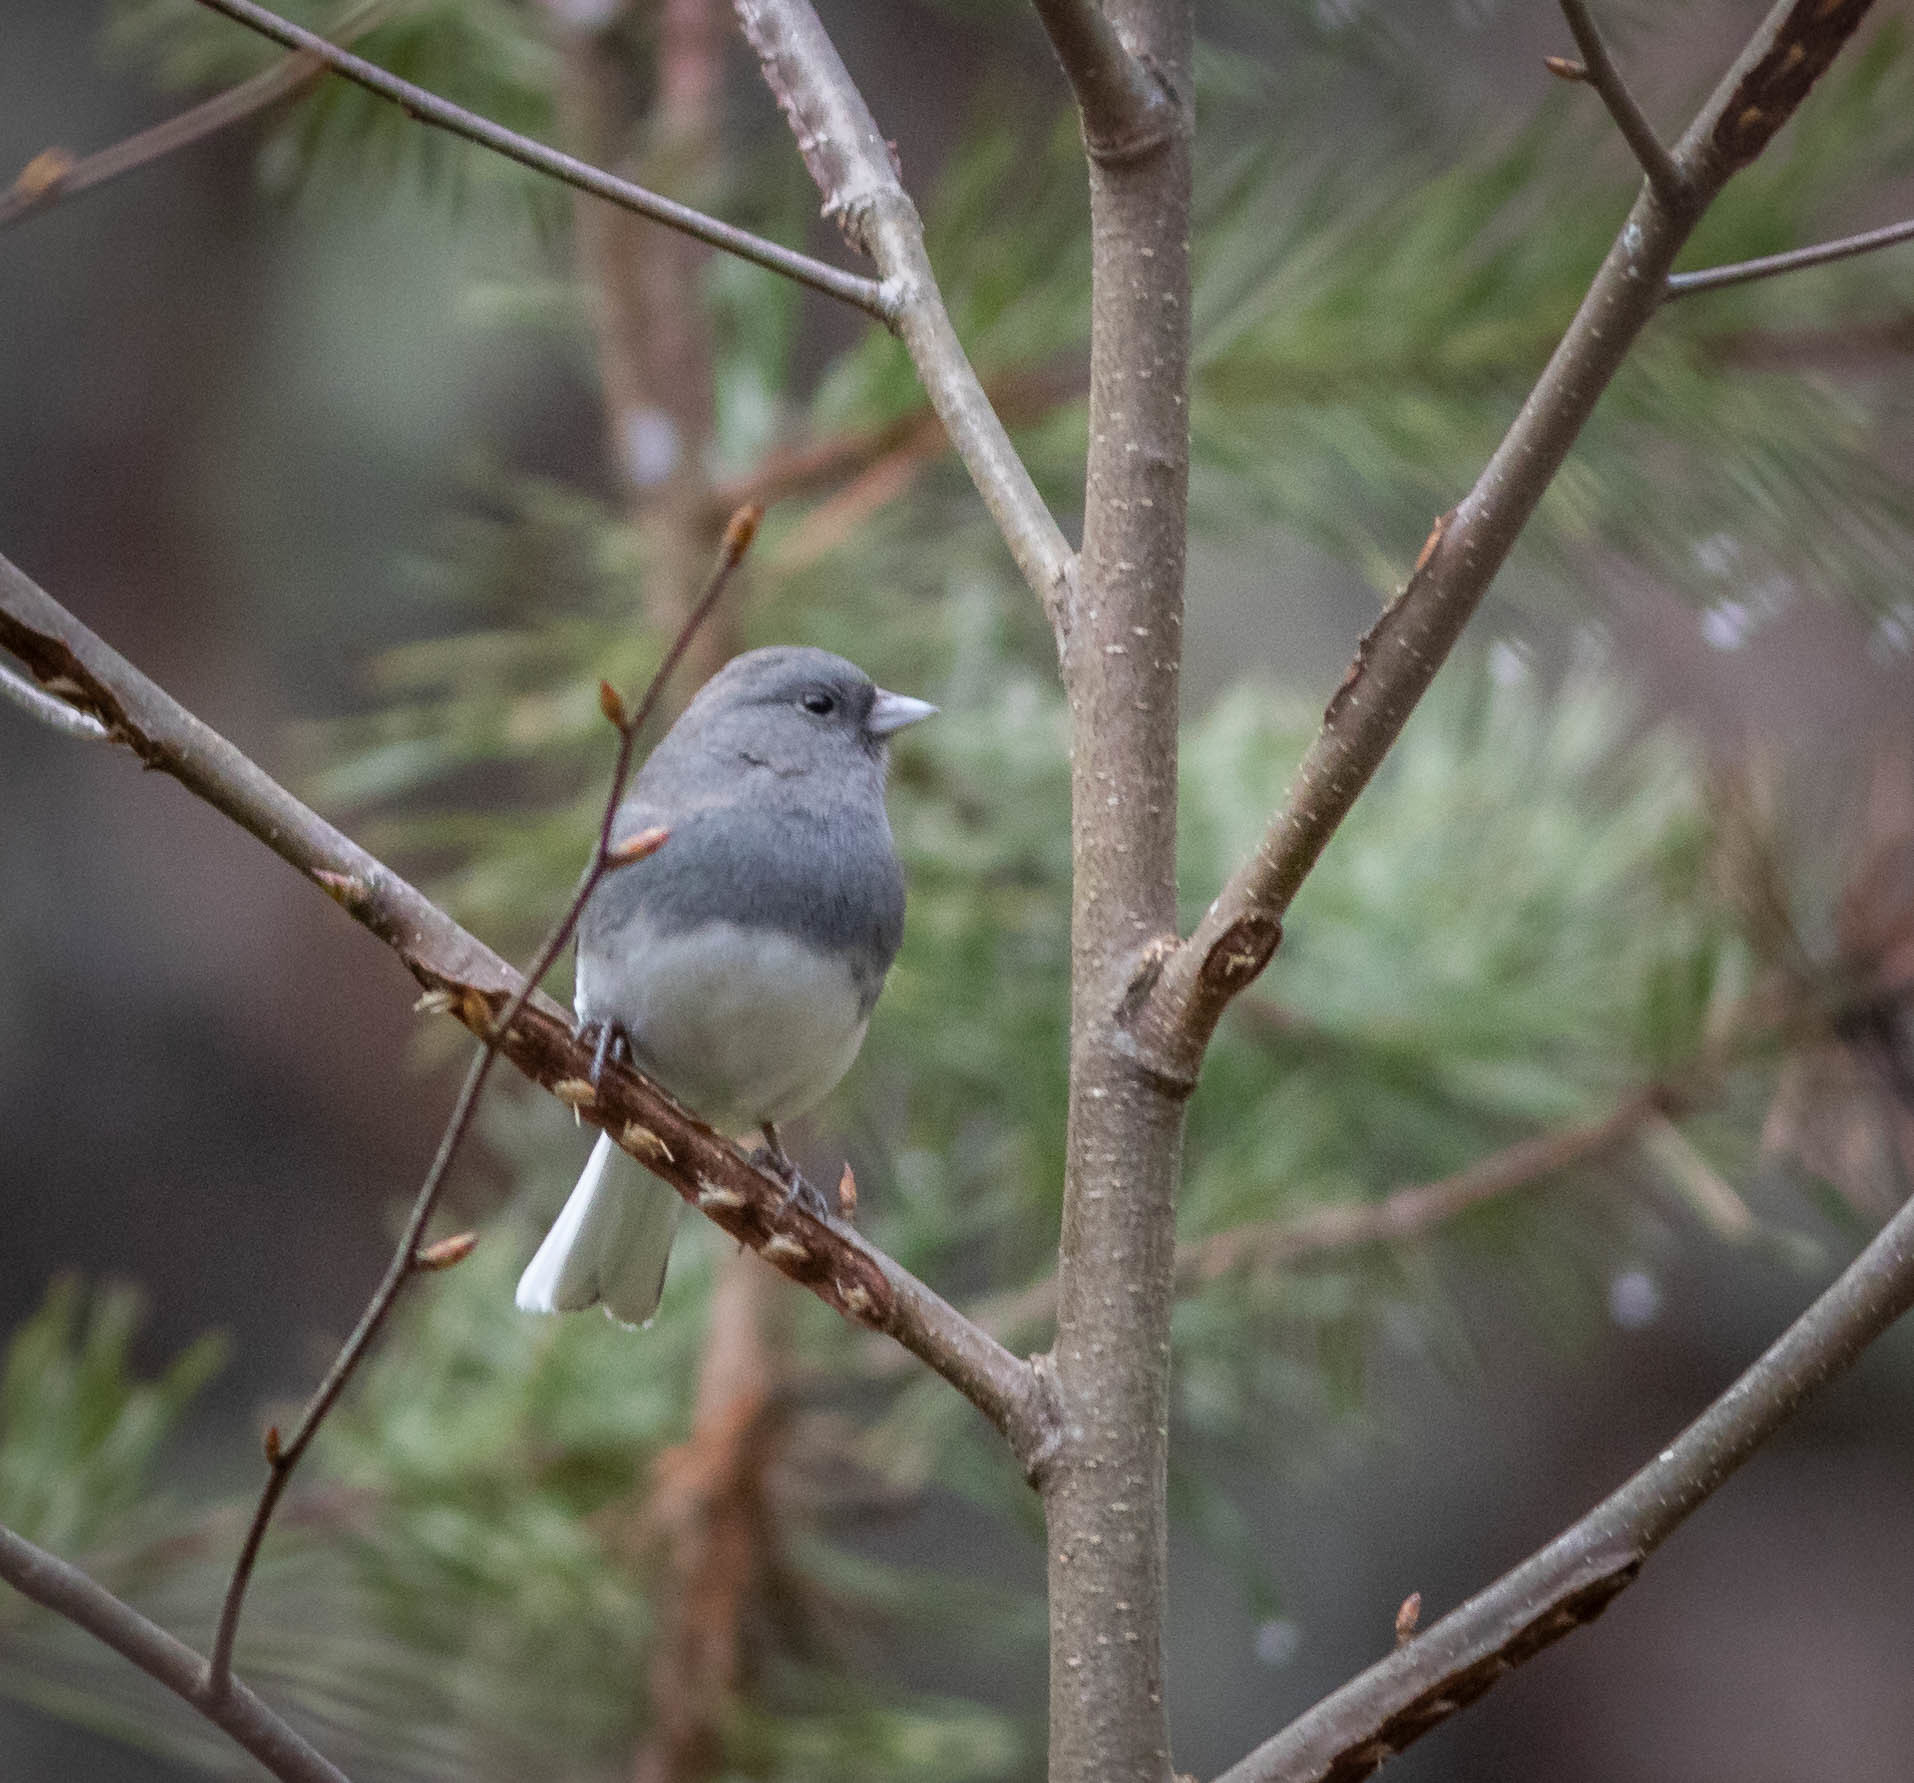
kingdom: Animalia
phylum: Chordata
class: Aves
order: Passeriformes
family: Passerellidae
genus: Junco
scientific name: Junco hyemalis
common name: Dark-eyed junco
